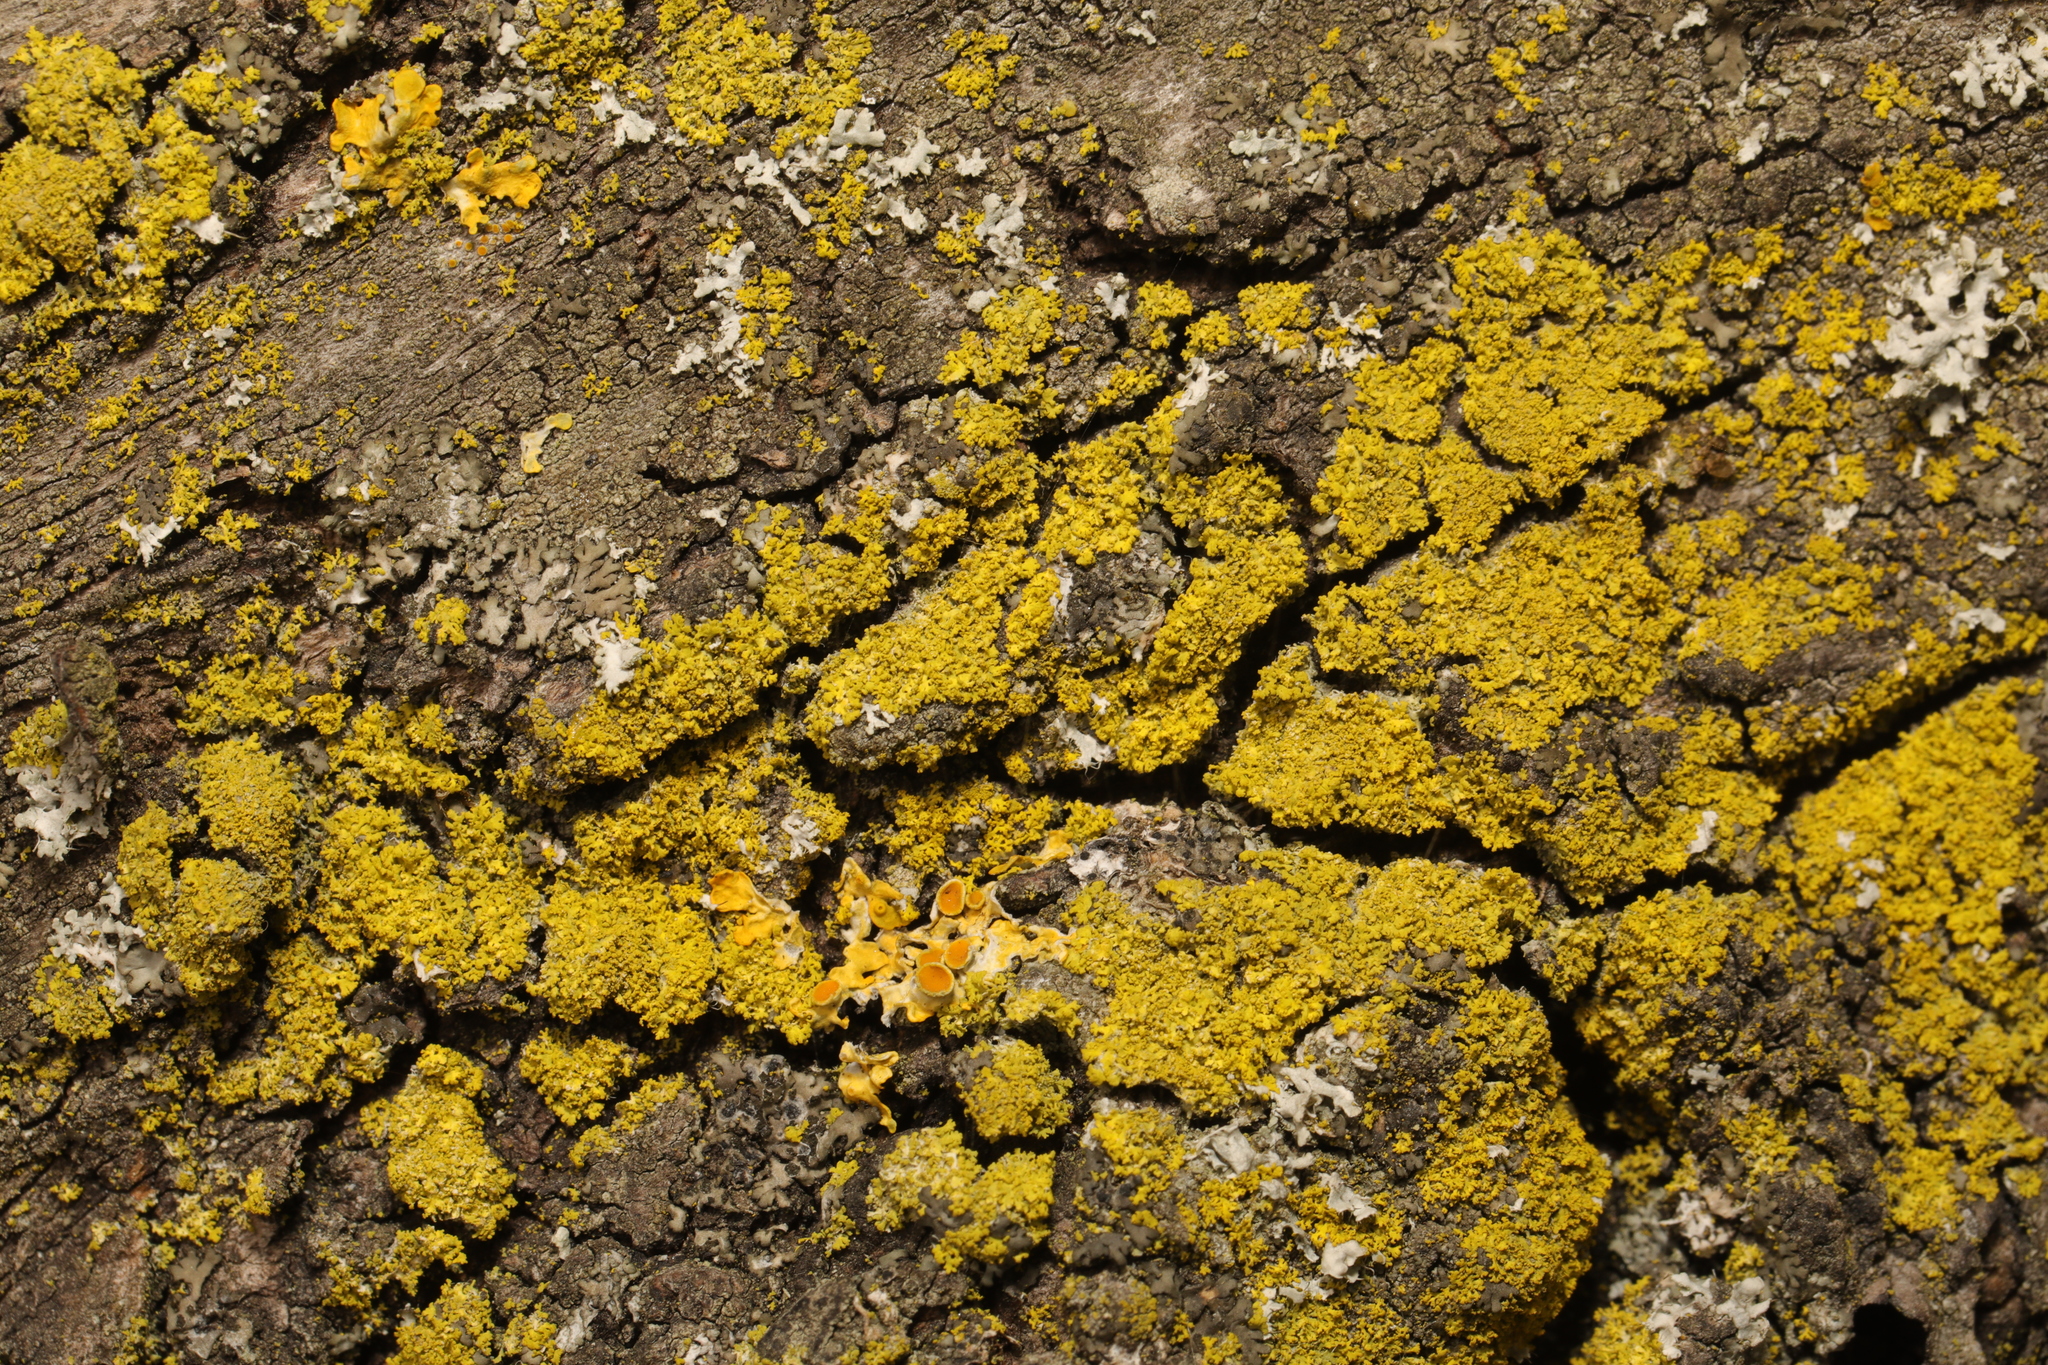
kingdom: Fungi
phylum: Ascomycota
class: Candelariomycetes
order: Candelariales
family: Candelariaceae
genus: Candelaria
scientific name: Candelaria concolor
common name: Candleflame lichen
